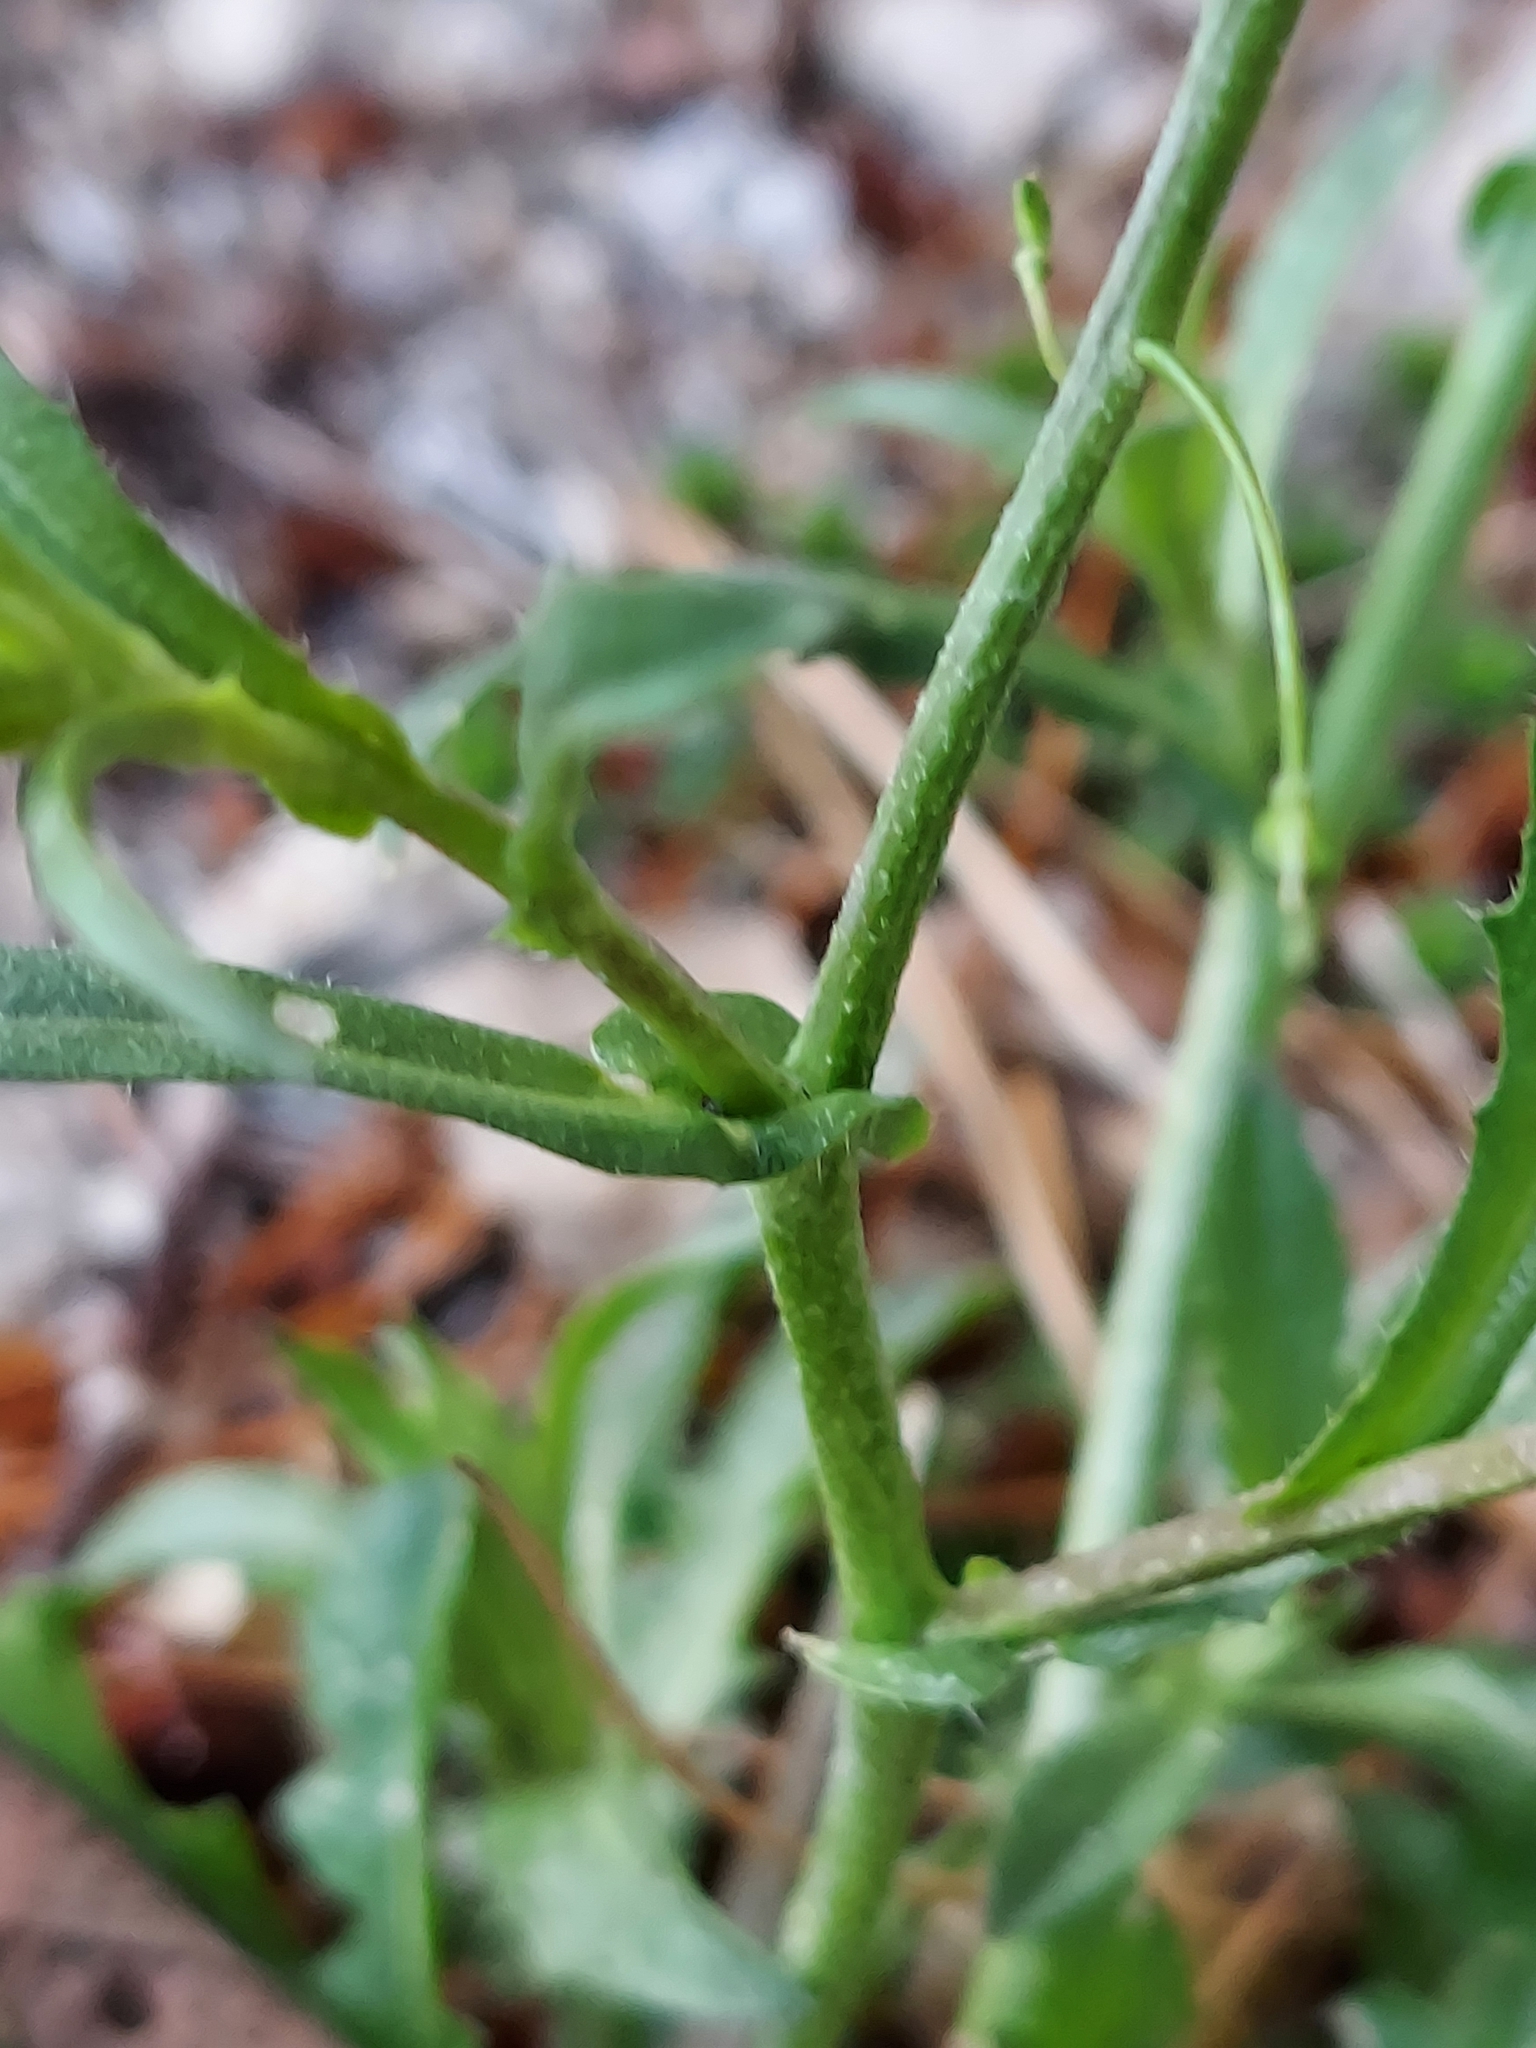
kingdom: Plantae
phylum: Tracheophyta
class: Magnoliopsida
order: Brassicales
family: Brassicaceae
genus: Capsella
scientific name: Capsella bursa-pastoris
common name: Shepherd's purse
